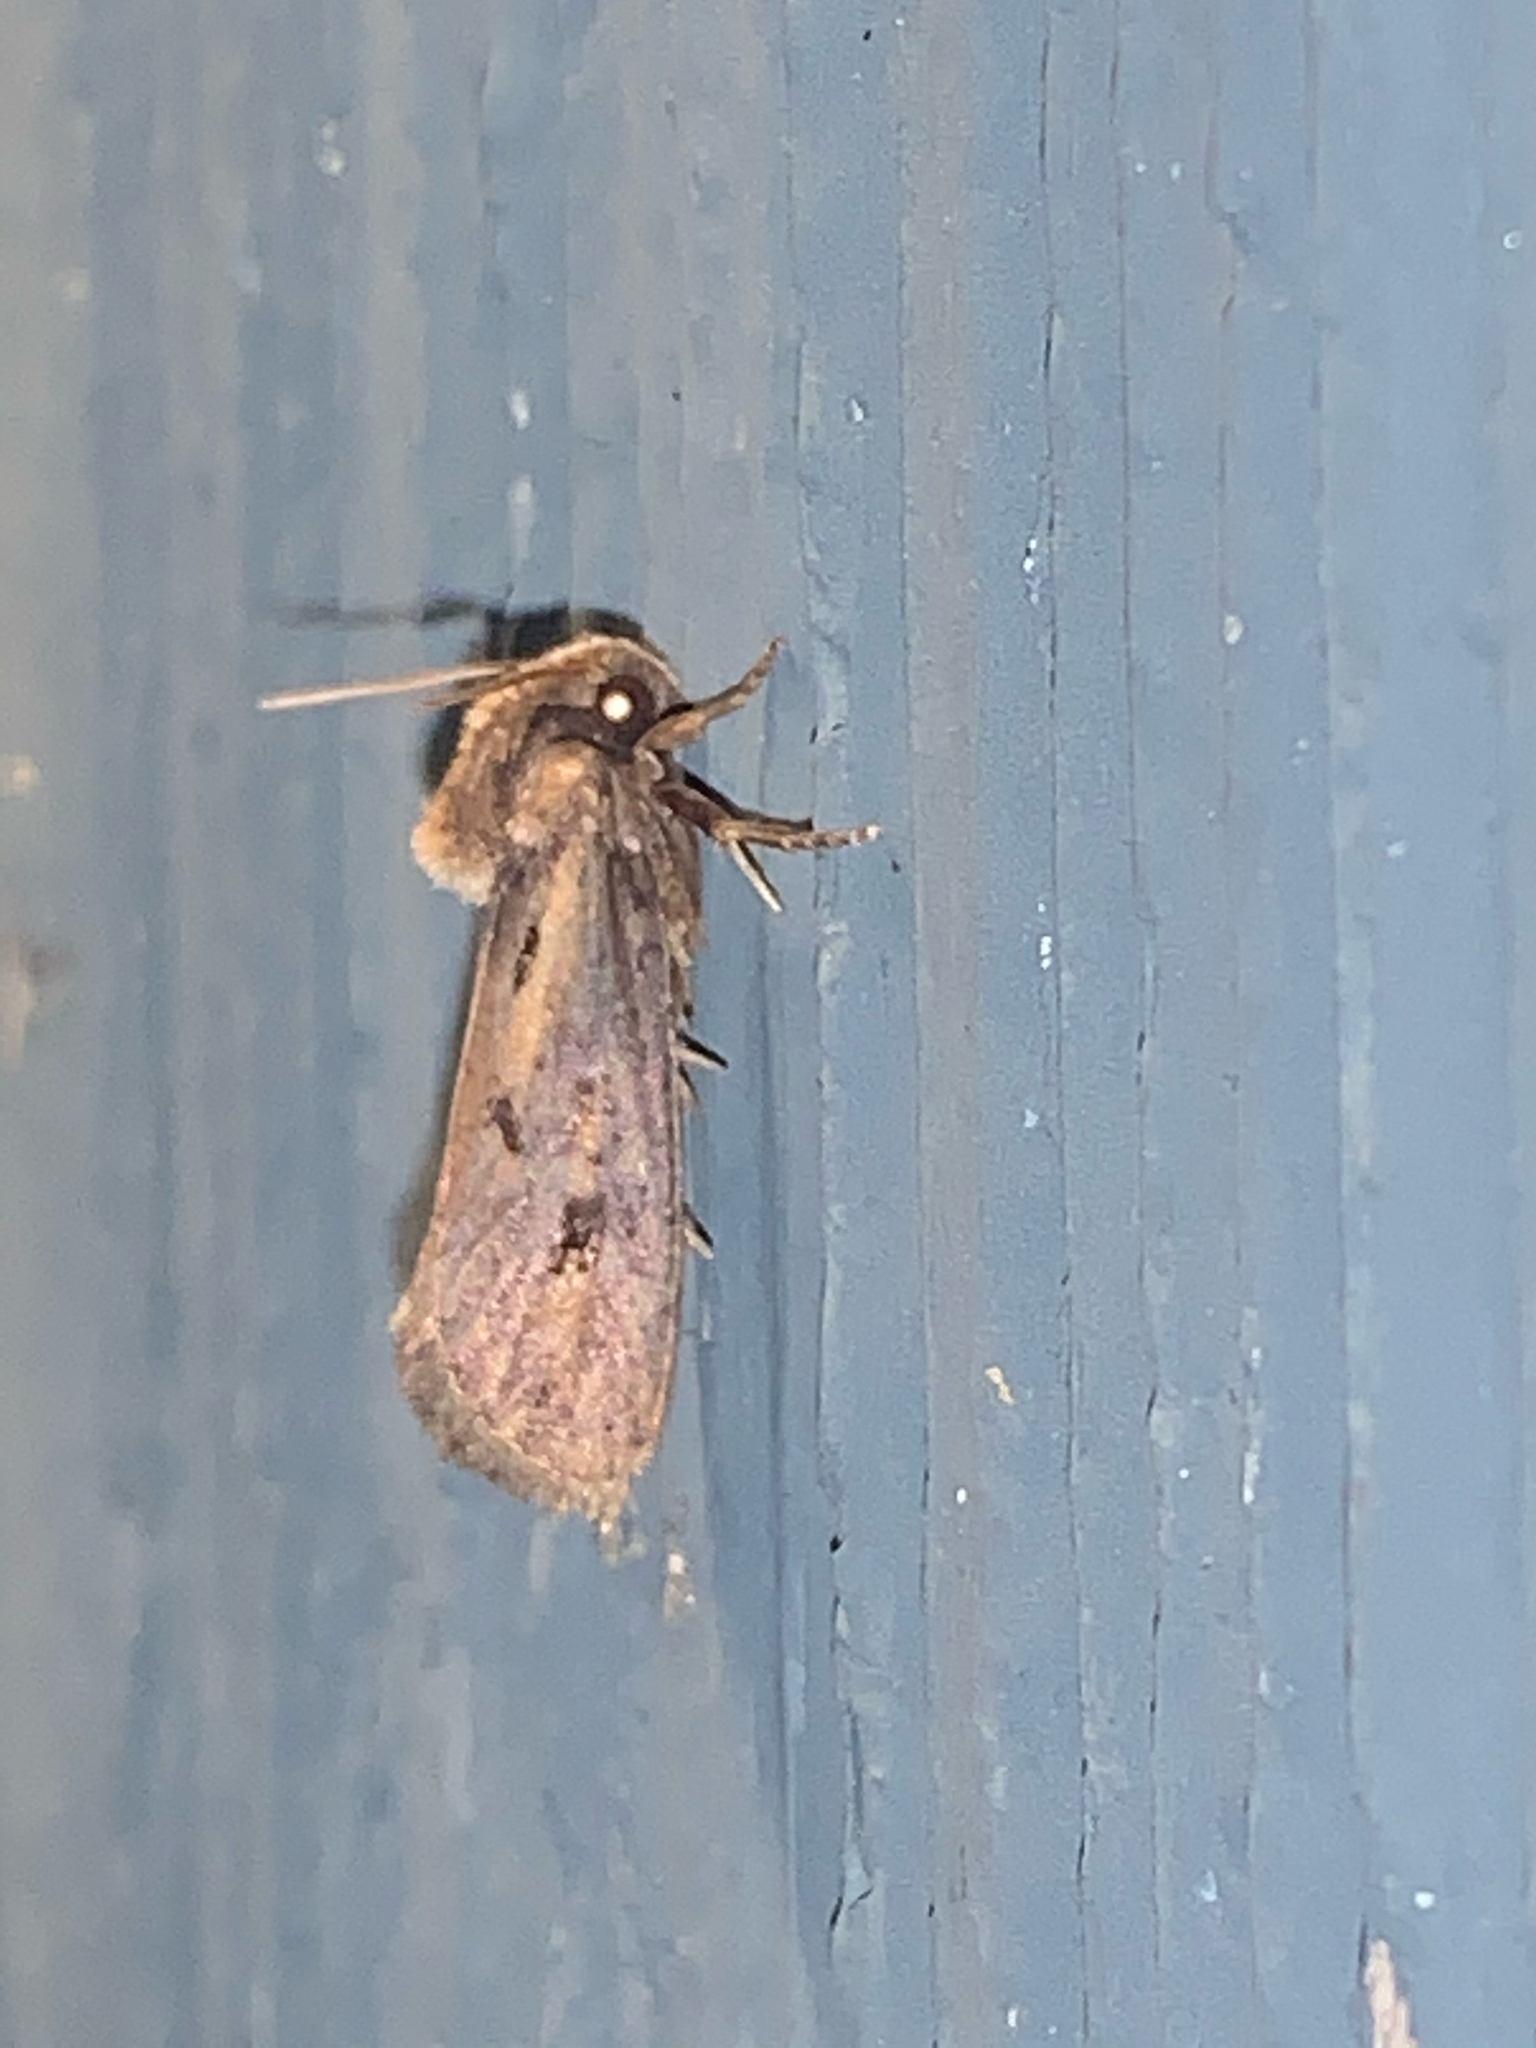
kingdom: Animalia
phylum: Arthropoda
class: Insecta
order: Lepidoptera
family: Tineidae
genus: Acrolophus
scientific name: Acrolophus popeanella
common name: Clemens' grass tubeworm moth
